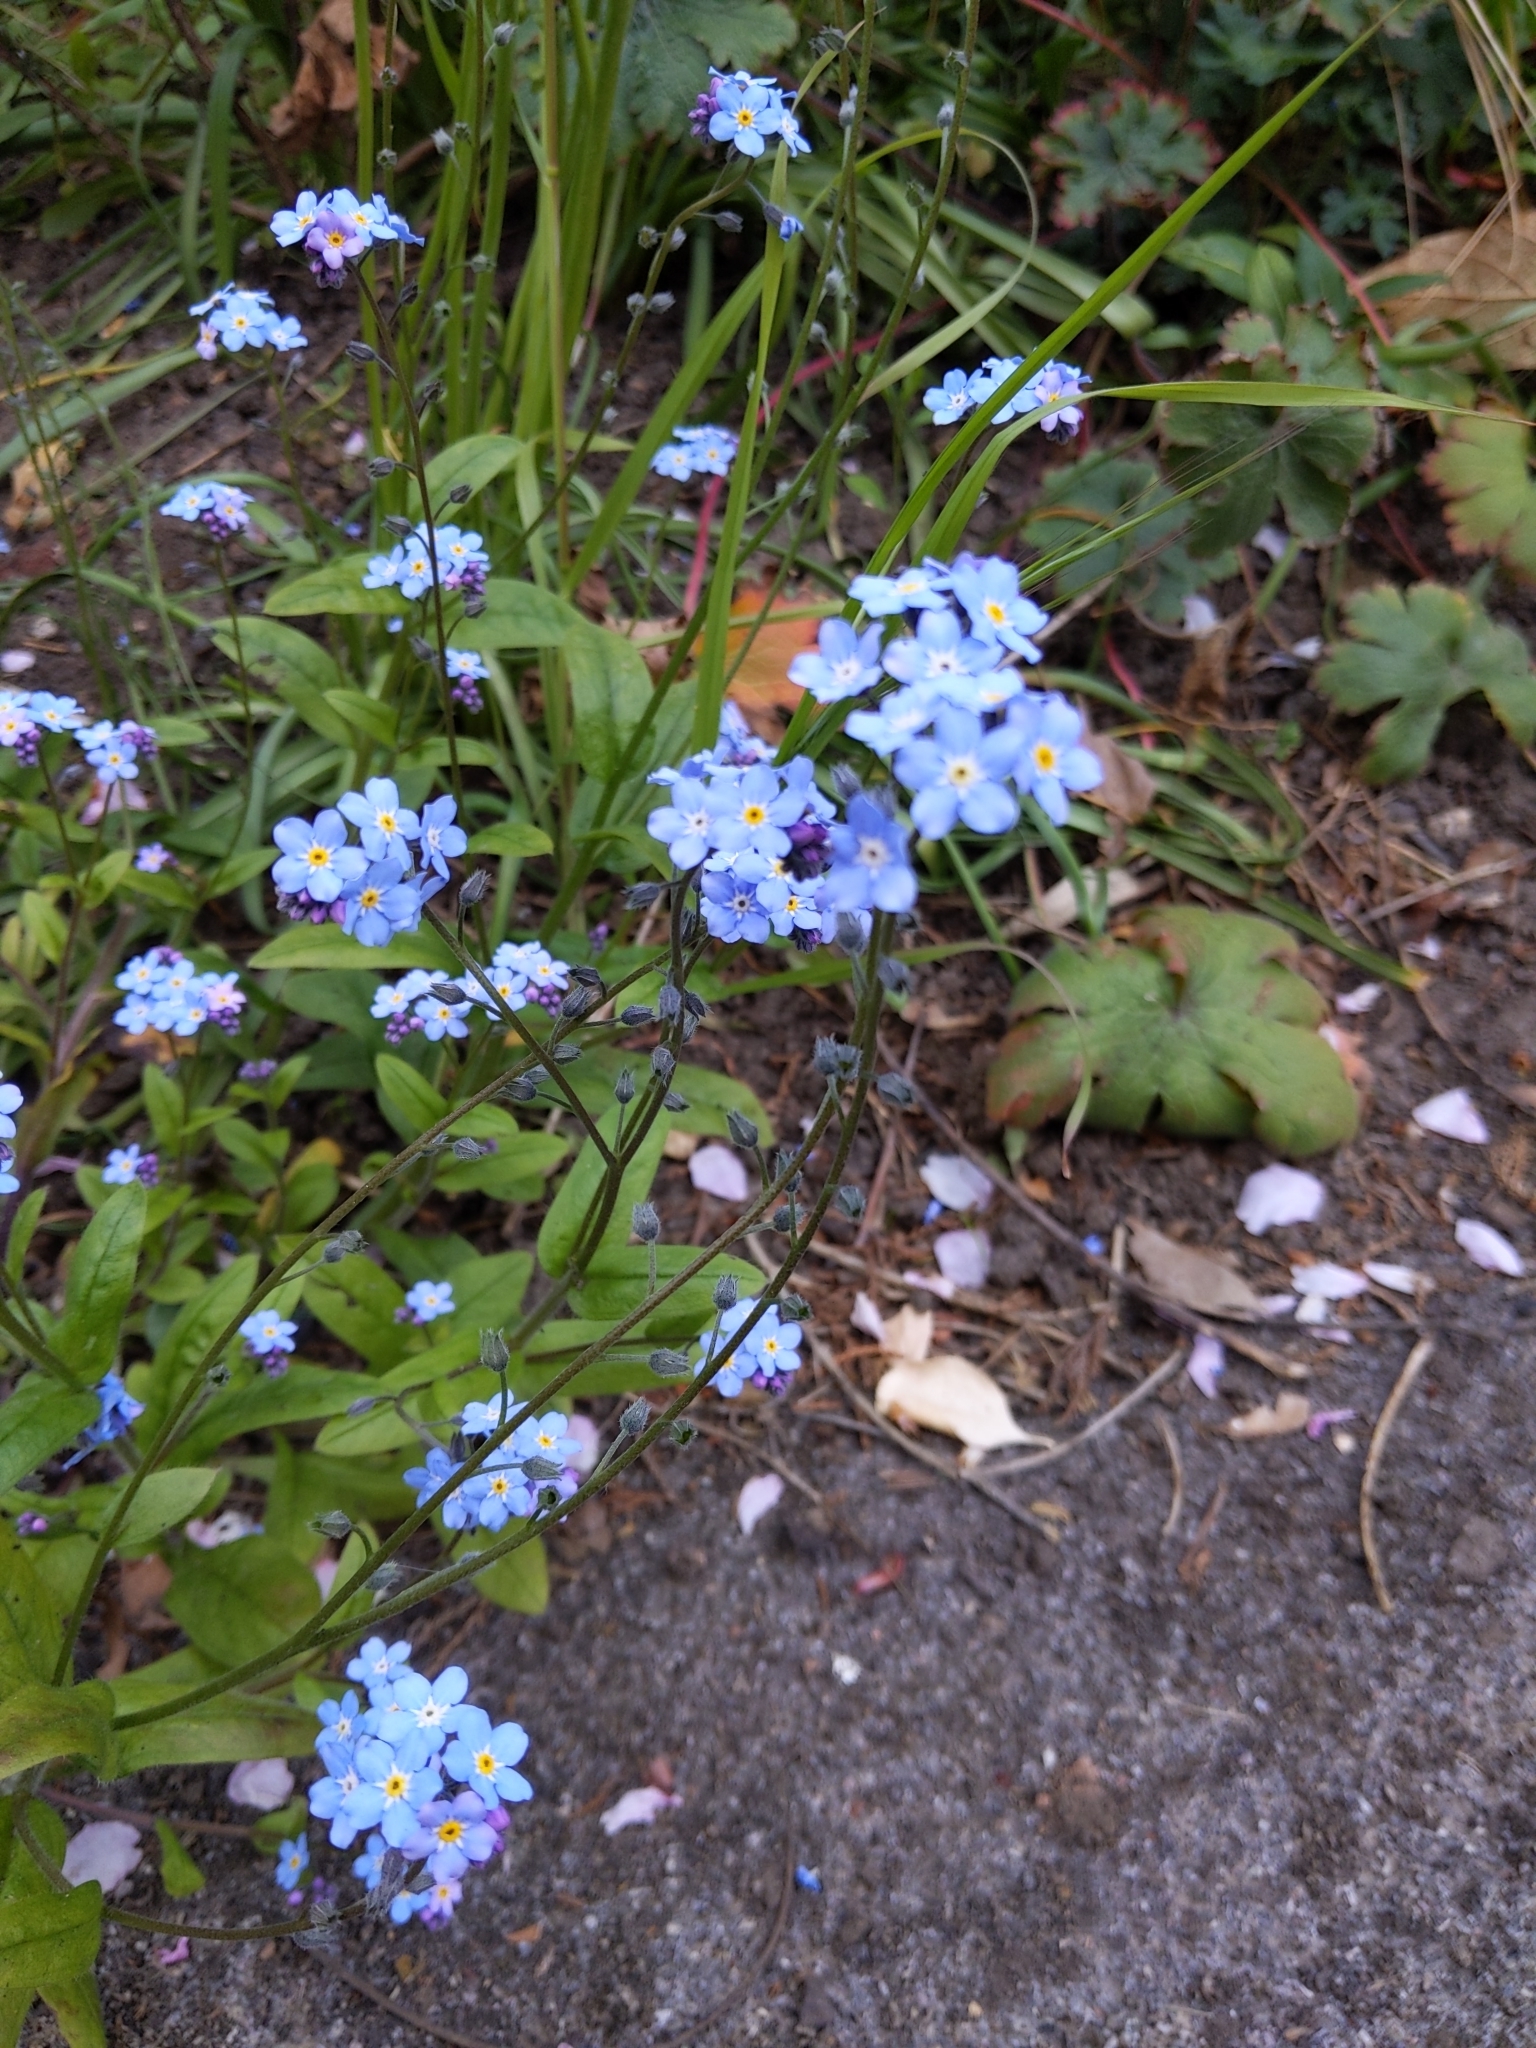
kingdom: Plantae
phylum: Tracheophyta
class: Magnoliopsida
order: Boraginales
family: Boraginaceae
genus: Myosotis
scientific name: Myosotis sylvatica
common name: Wood forget-me-not
